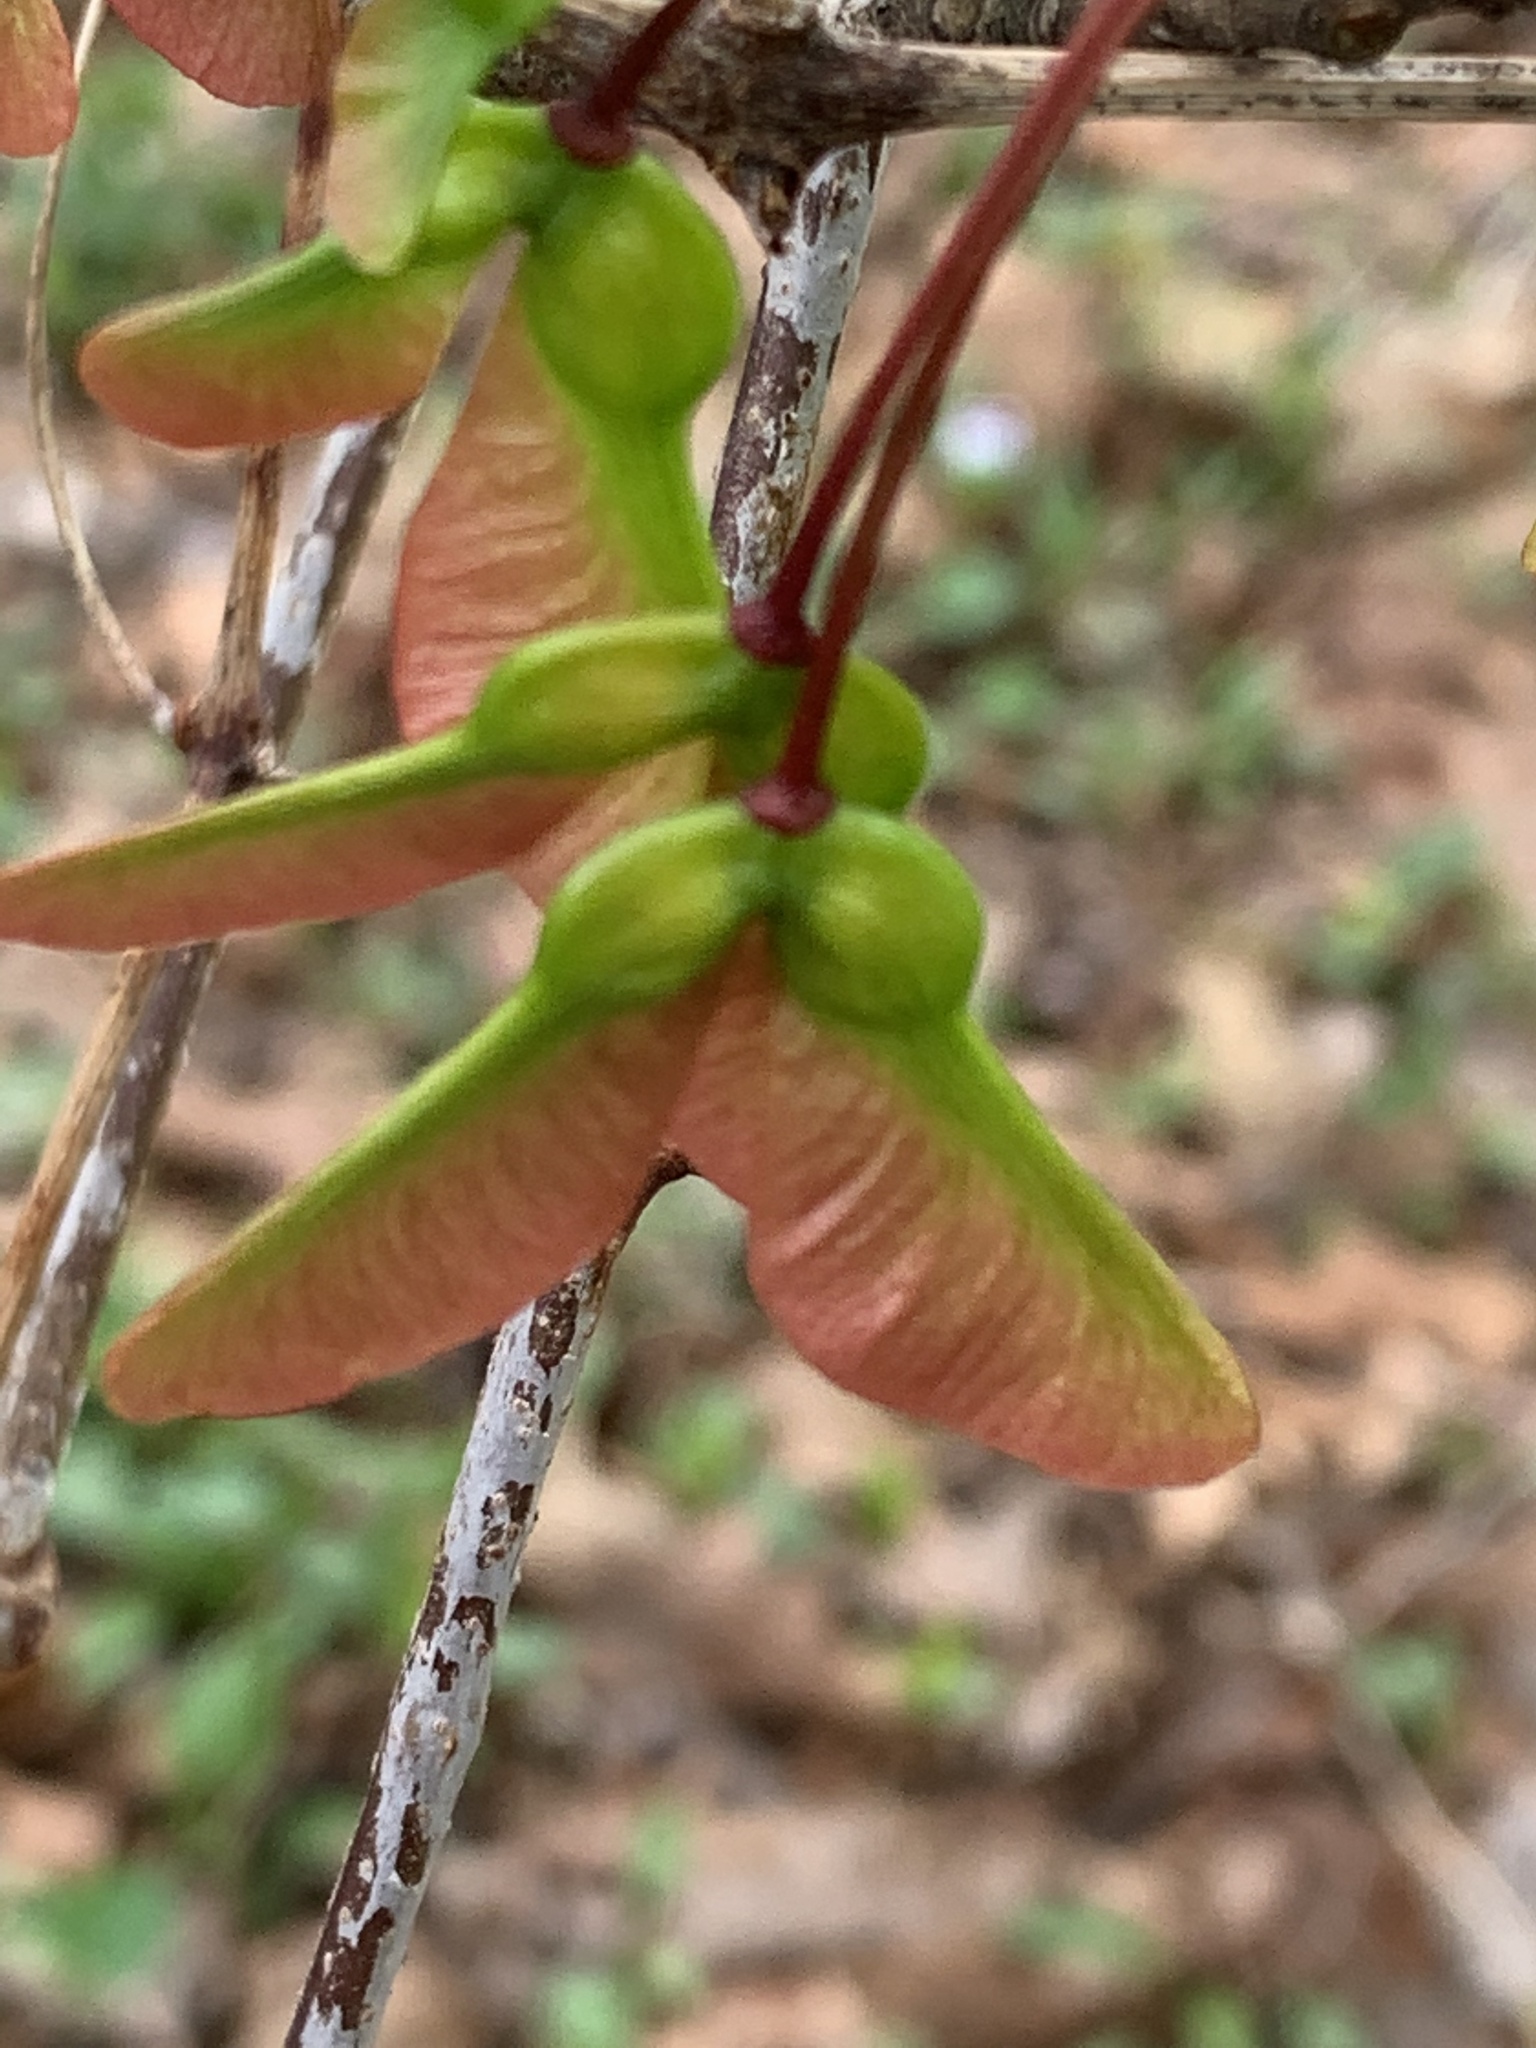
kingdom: Plantae
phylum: Tracheophyta
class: Magnoliopsida
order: Sapindales
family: Sapindaceae
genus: Acer
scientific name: Acer rubrum
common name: Red maple
